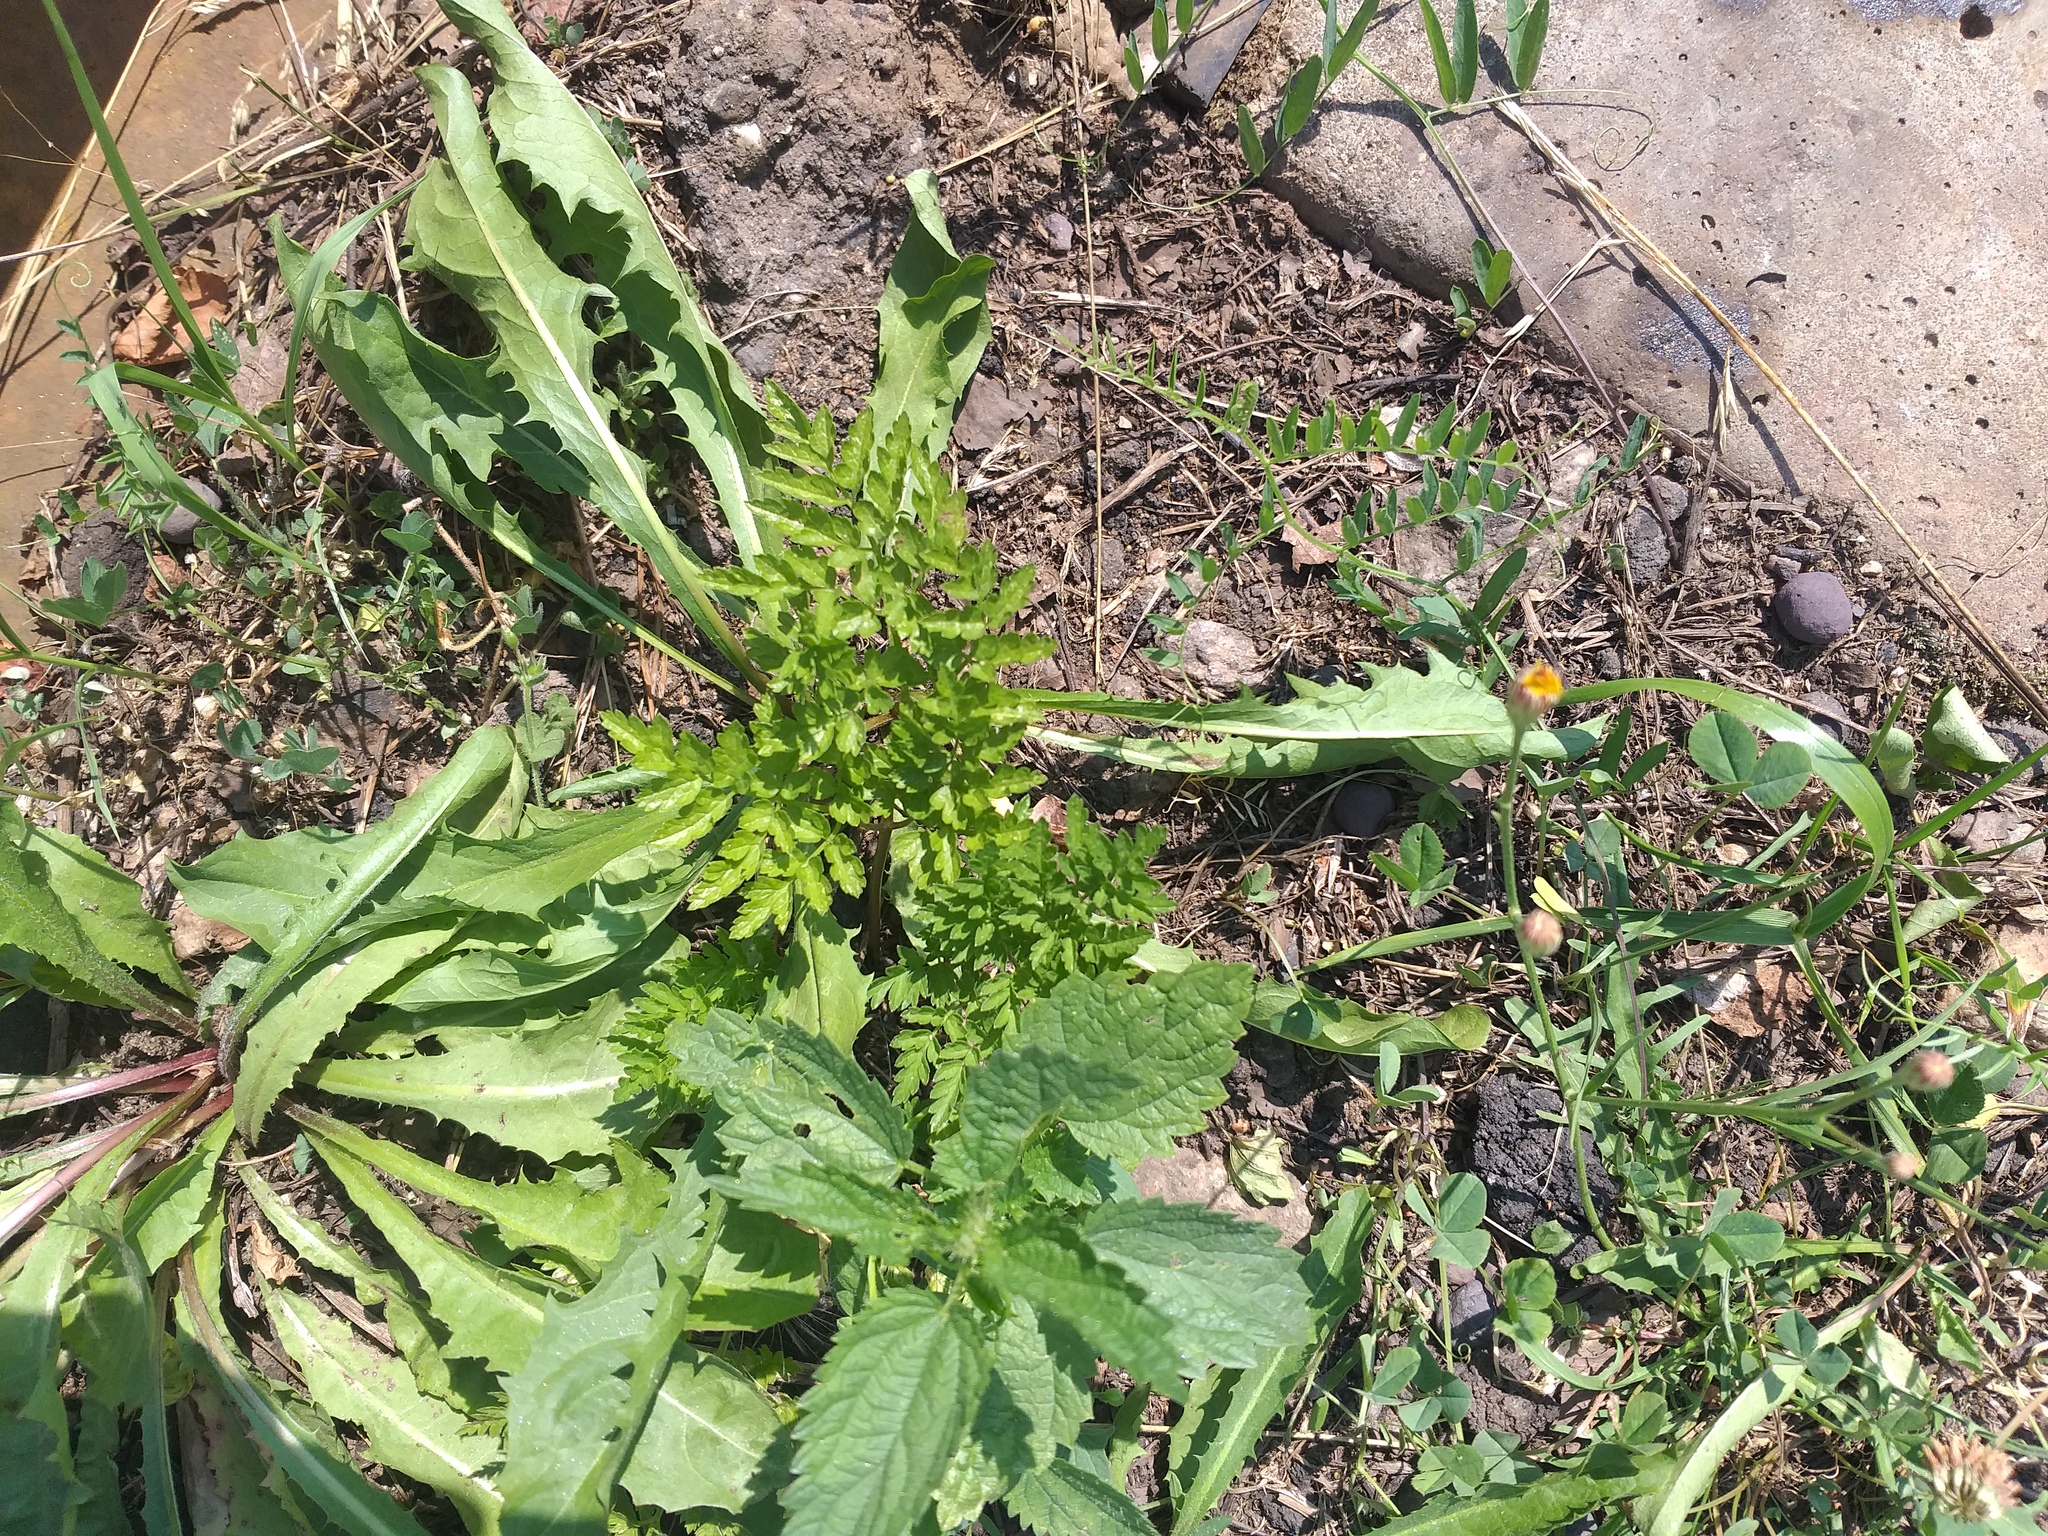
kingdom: Plantae
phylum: Tracheophyta
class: Magnoliopsida
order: Apiales
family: Apiaceae
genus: Anthriscus
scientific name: Anthriscus sylvestris
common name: Cow parsley
